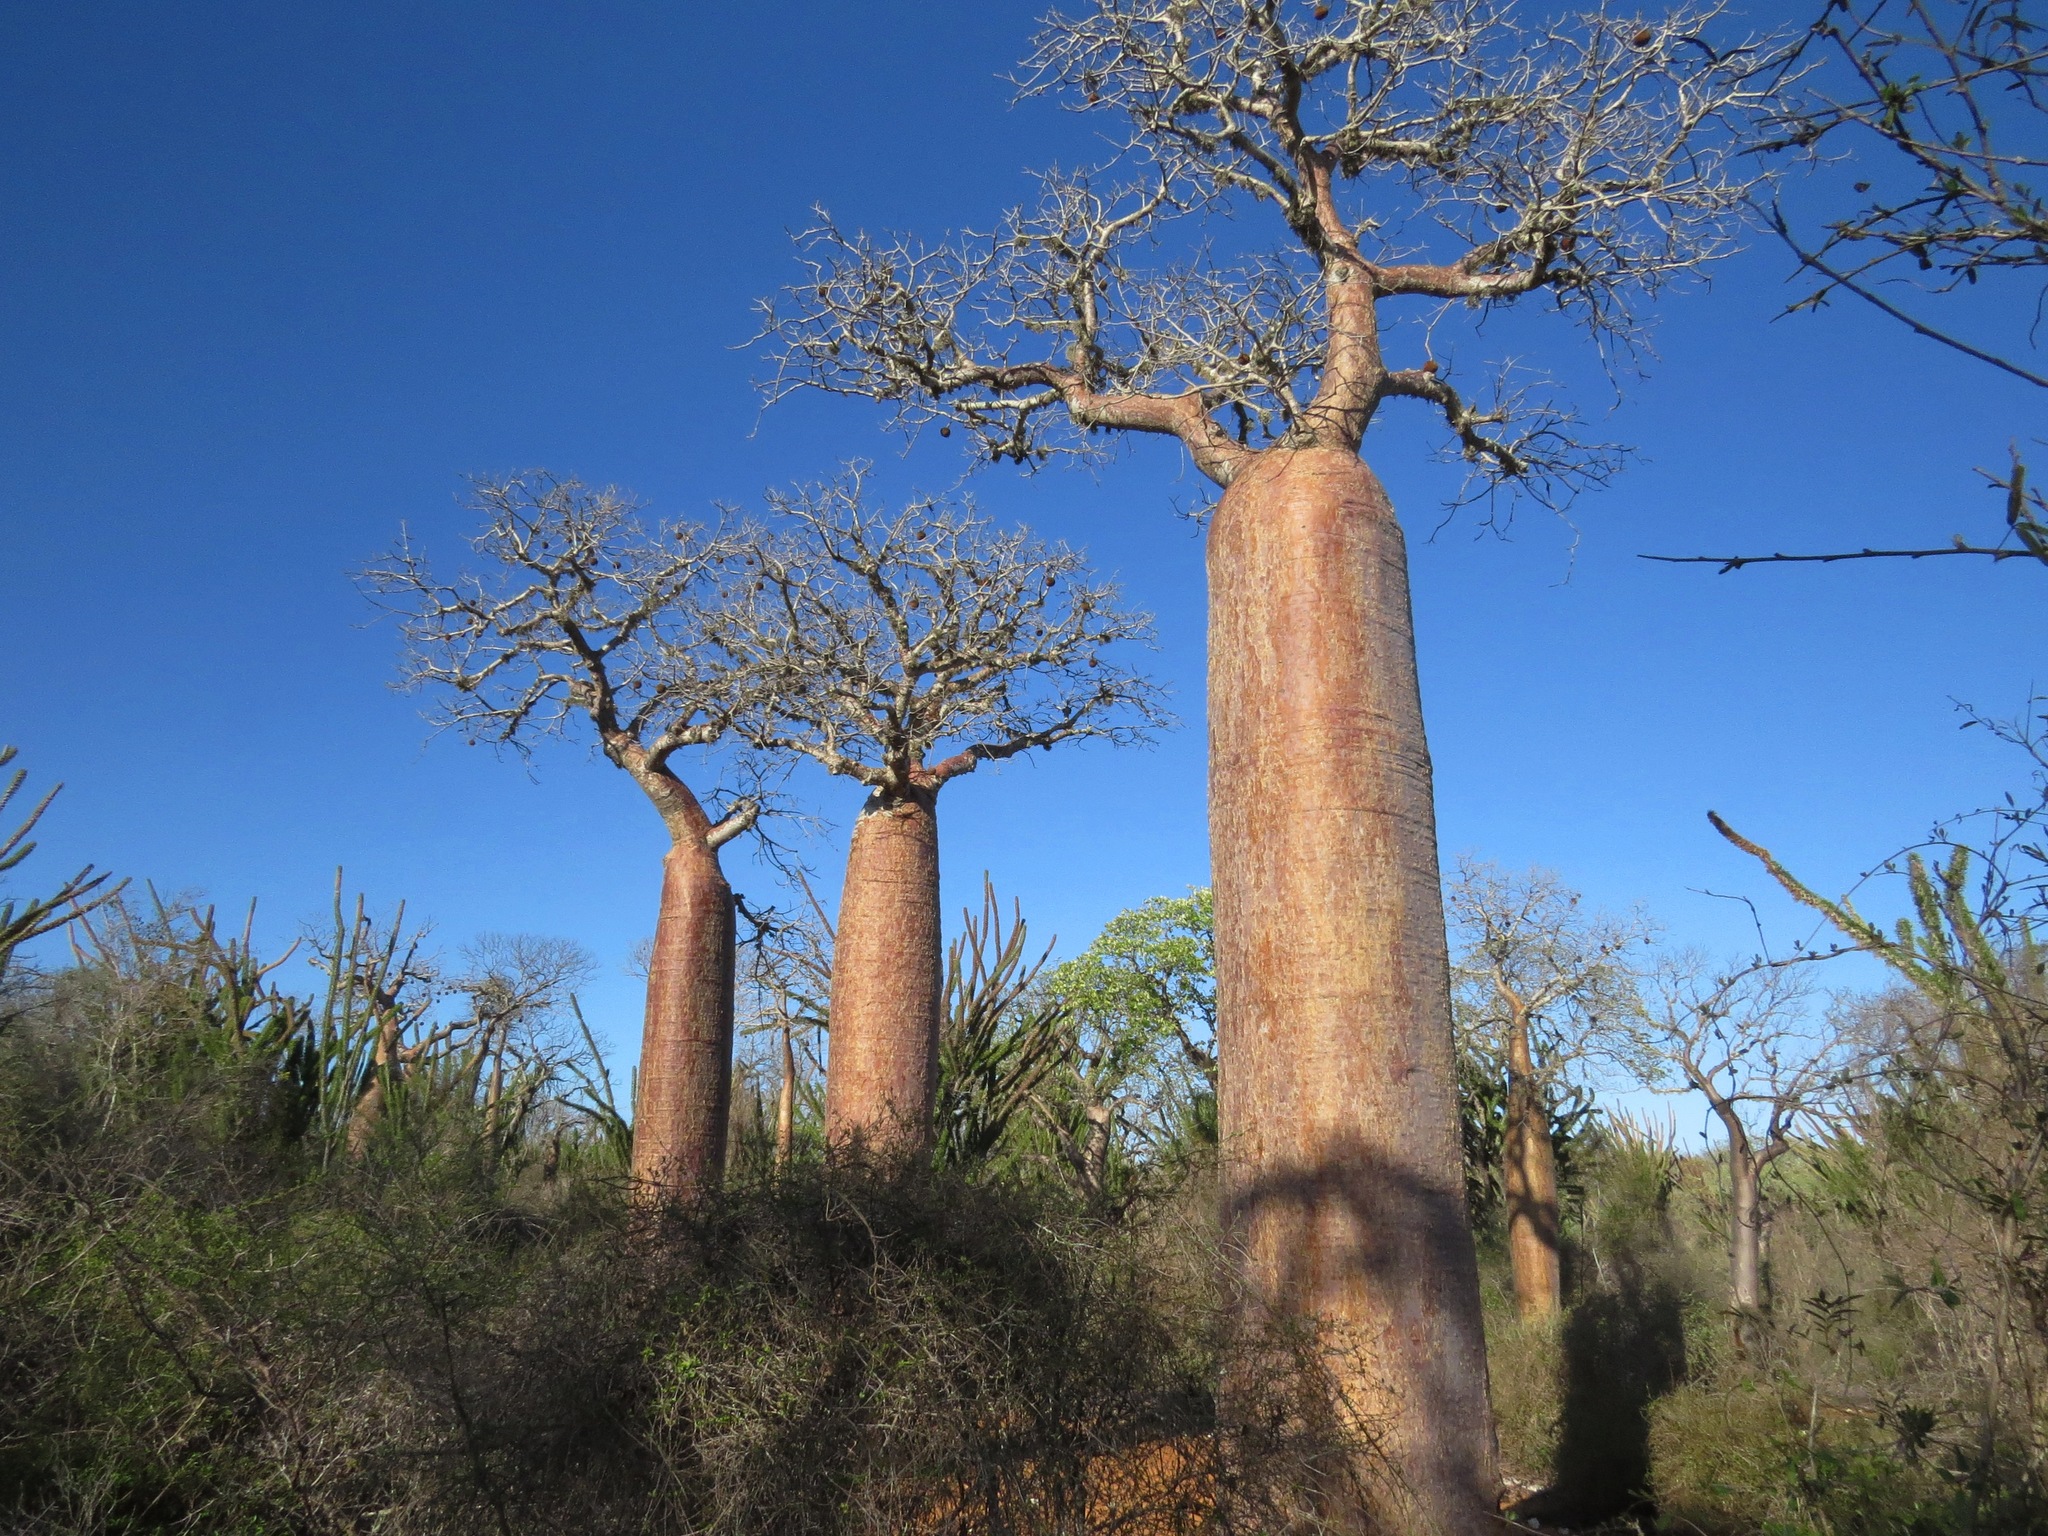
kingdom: Plantae
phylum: Tracheophyta
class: Magnoliopsida
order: Malvales
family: Malvaceae
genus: Adansonia
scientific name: Adansonia rubrostipa
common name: Fony baobab
